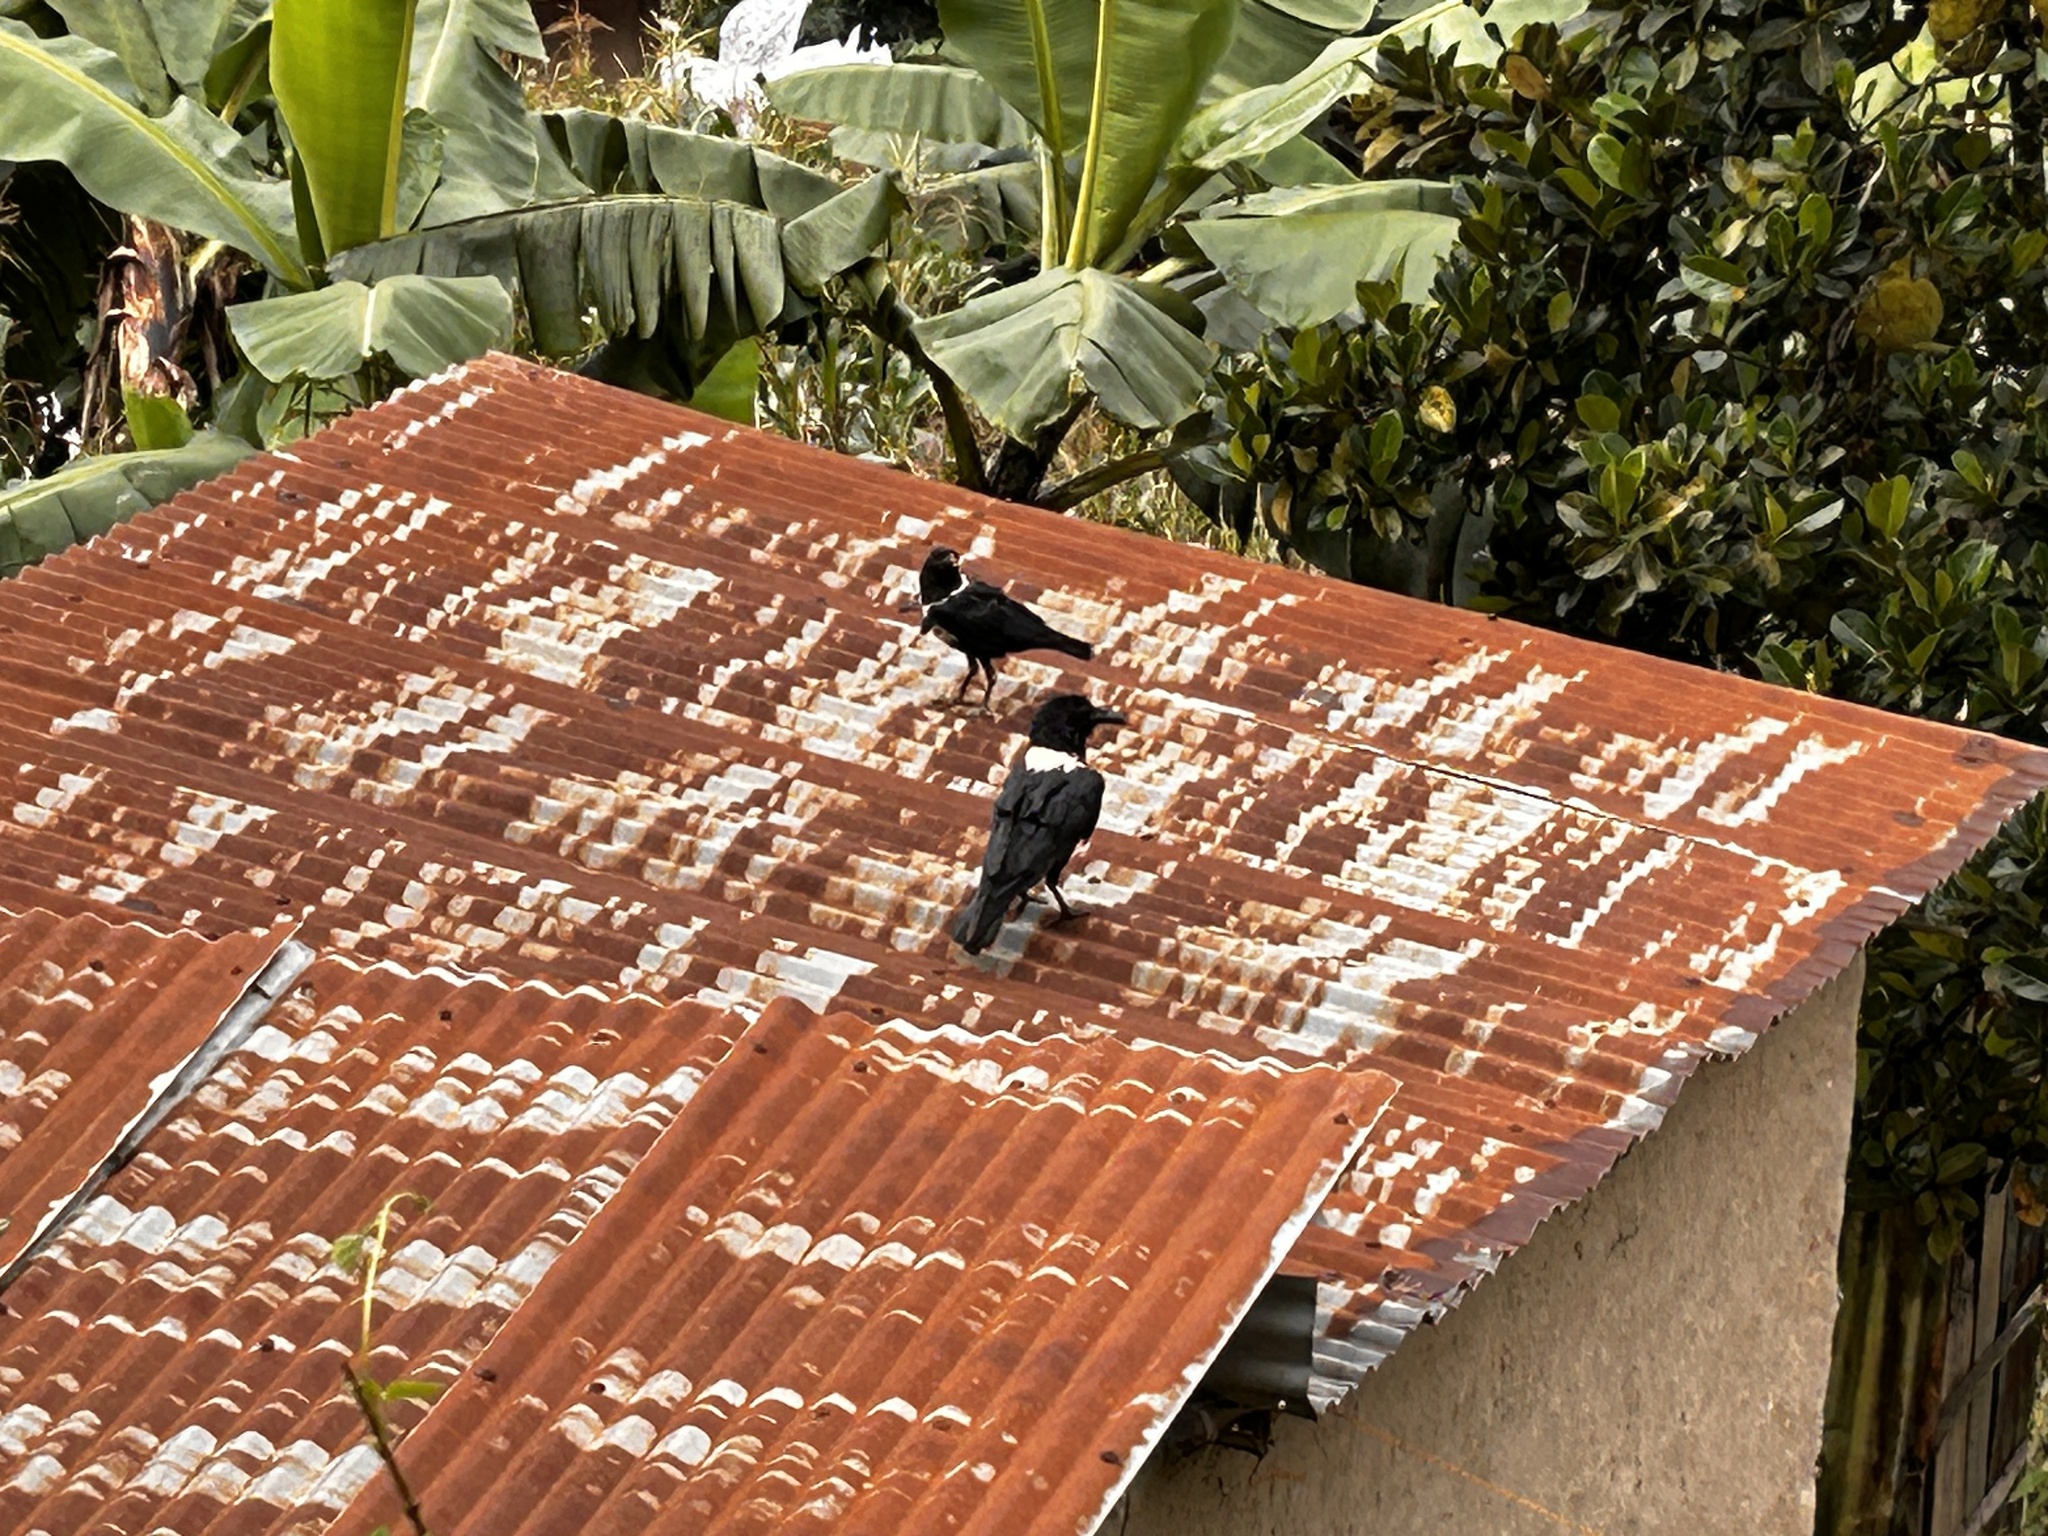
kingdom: Animalia
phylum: Chordata
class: Aves
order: Passeriformes
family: Corvidae
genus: Corvus
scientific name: Corvus albus
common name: Pied crow
